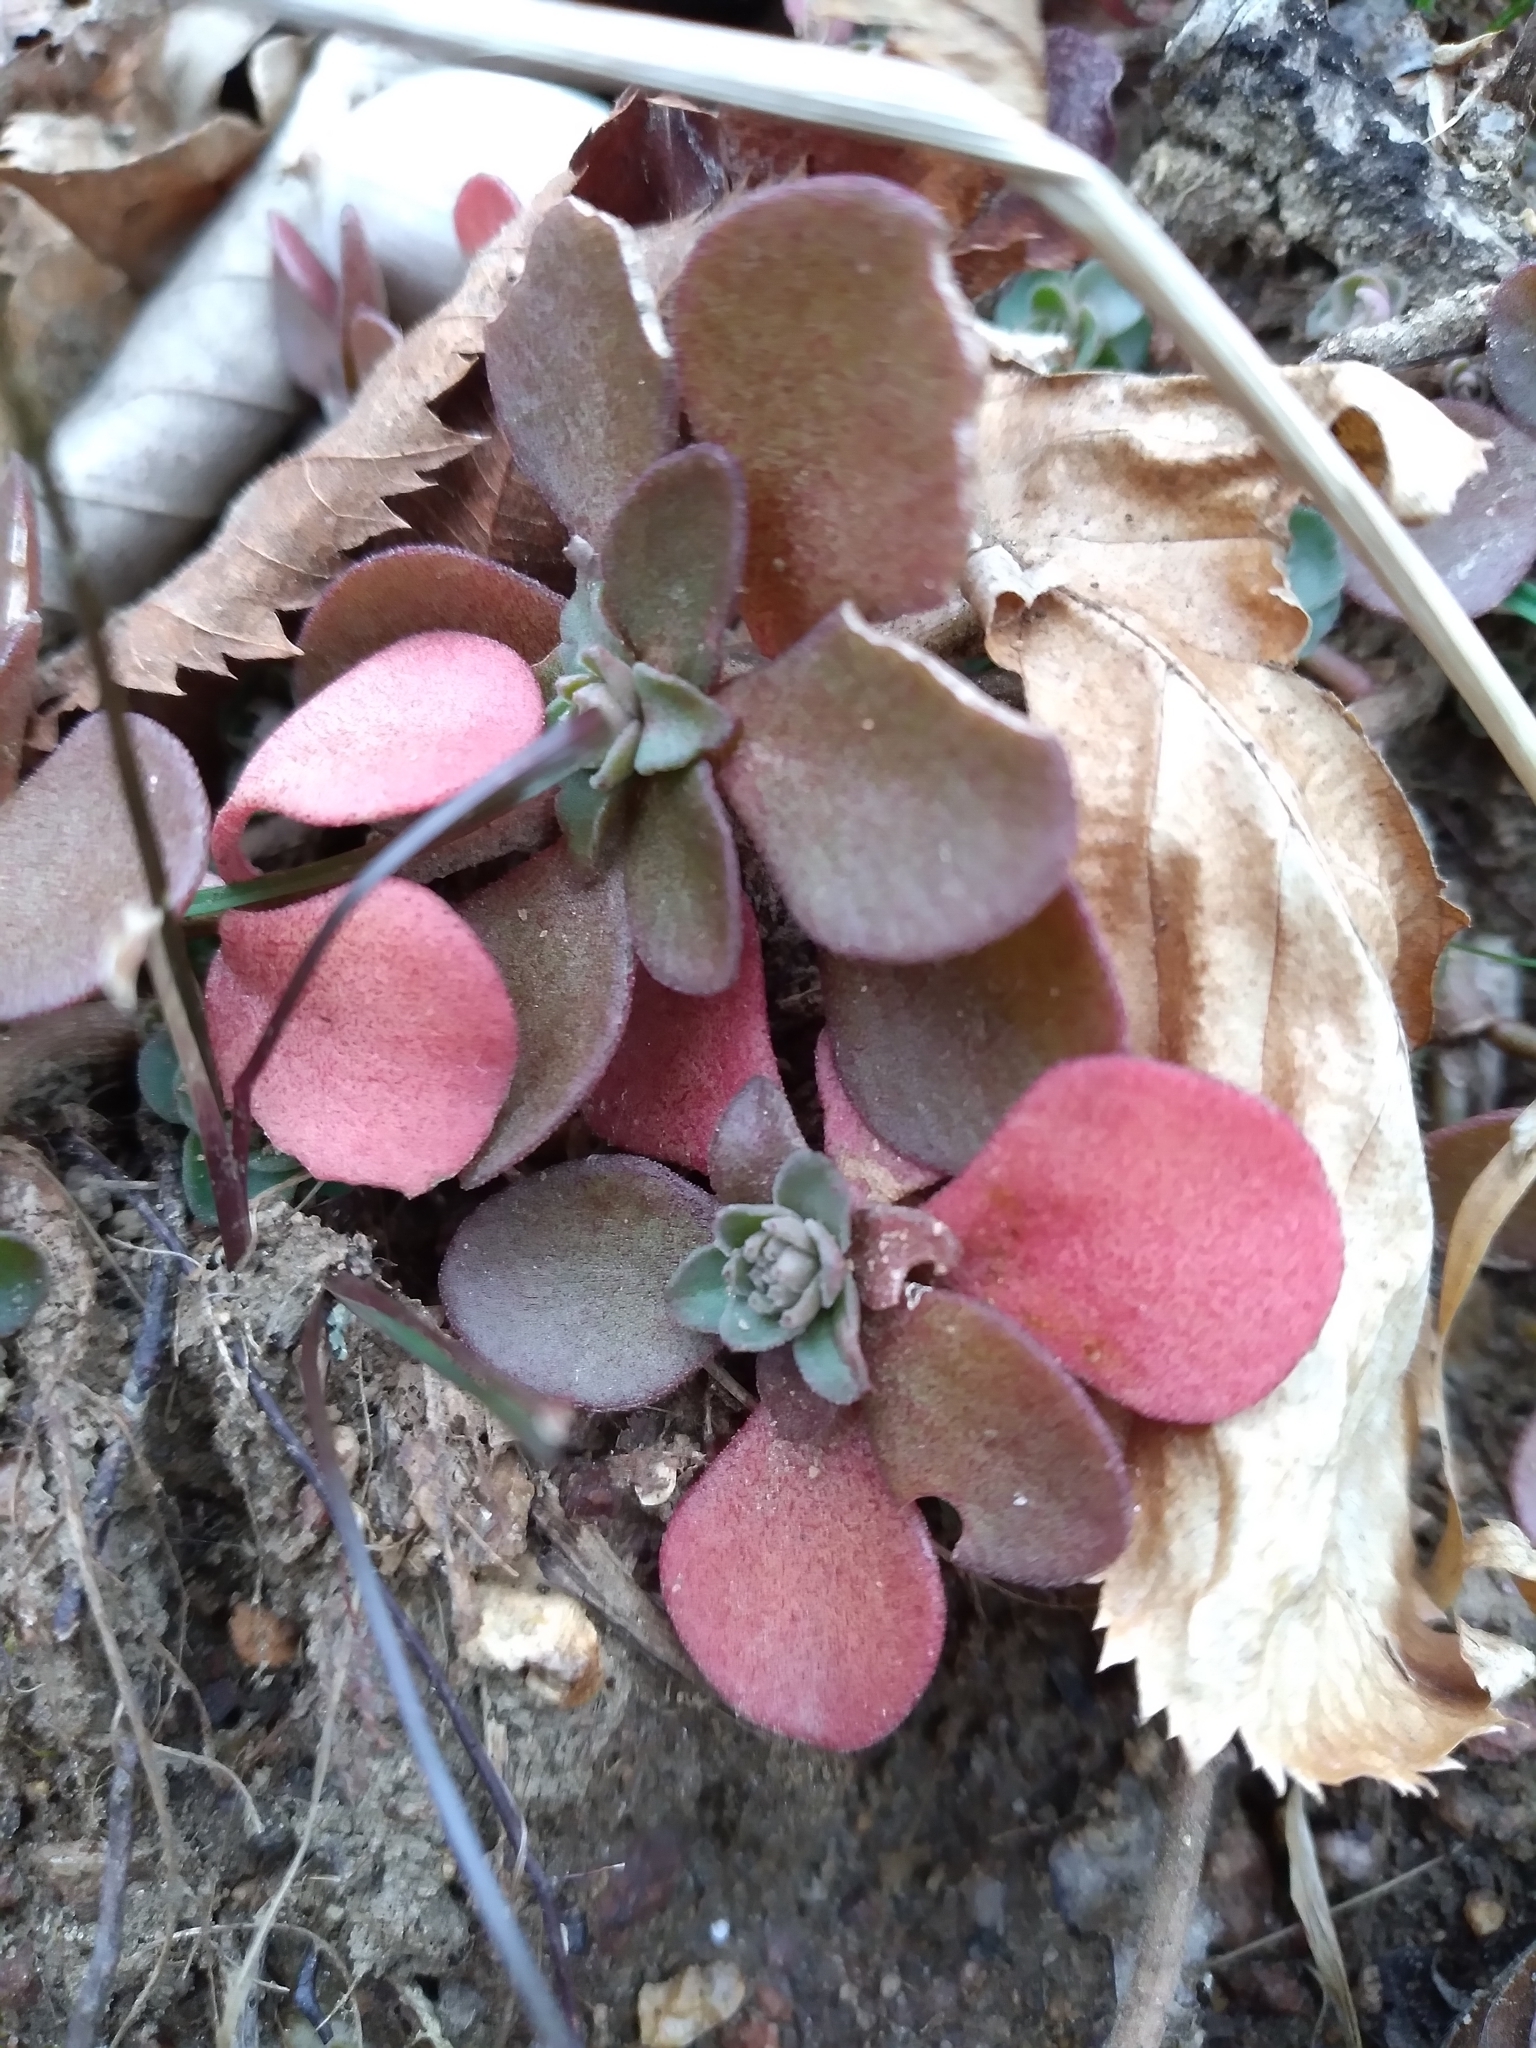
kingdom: Plantae
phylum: Tracheophyta
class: Magnoliopsida
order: Saxifragales
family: Crassulaceae
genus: Sedum
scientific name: Sedum ternatum
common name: Wild stonecrop
